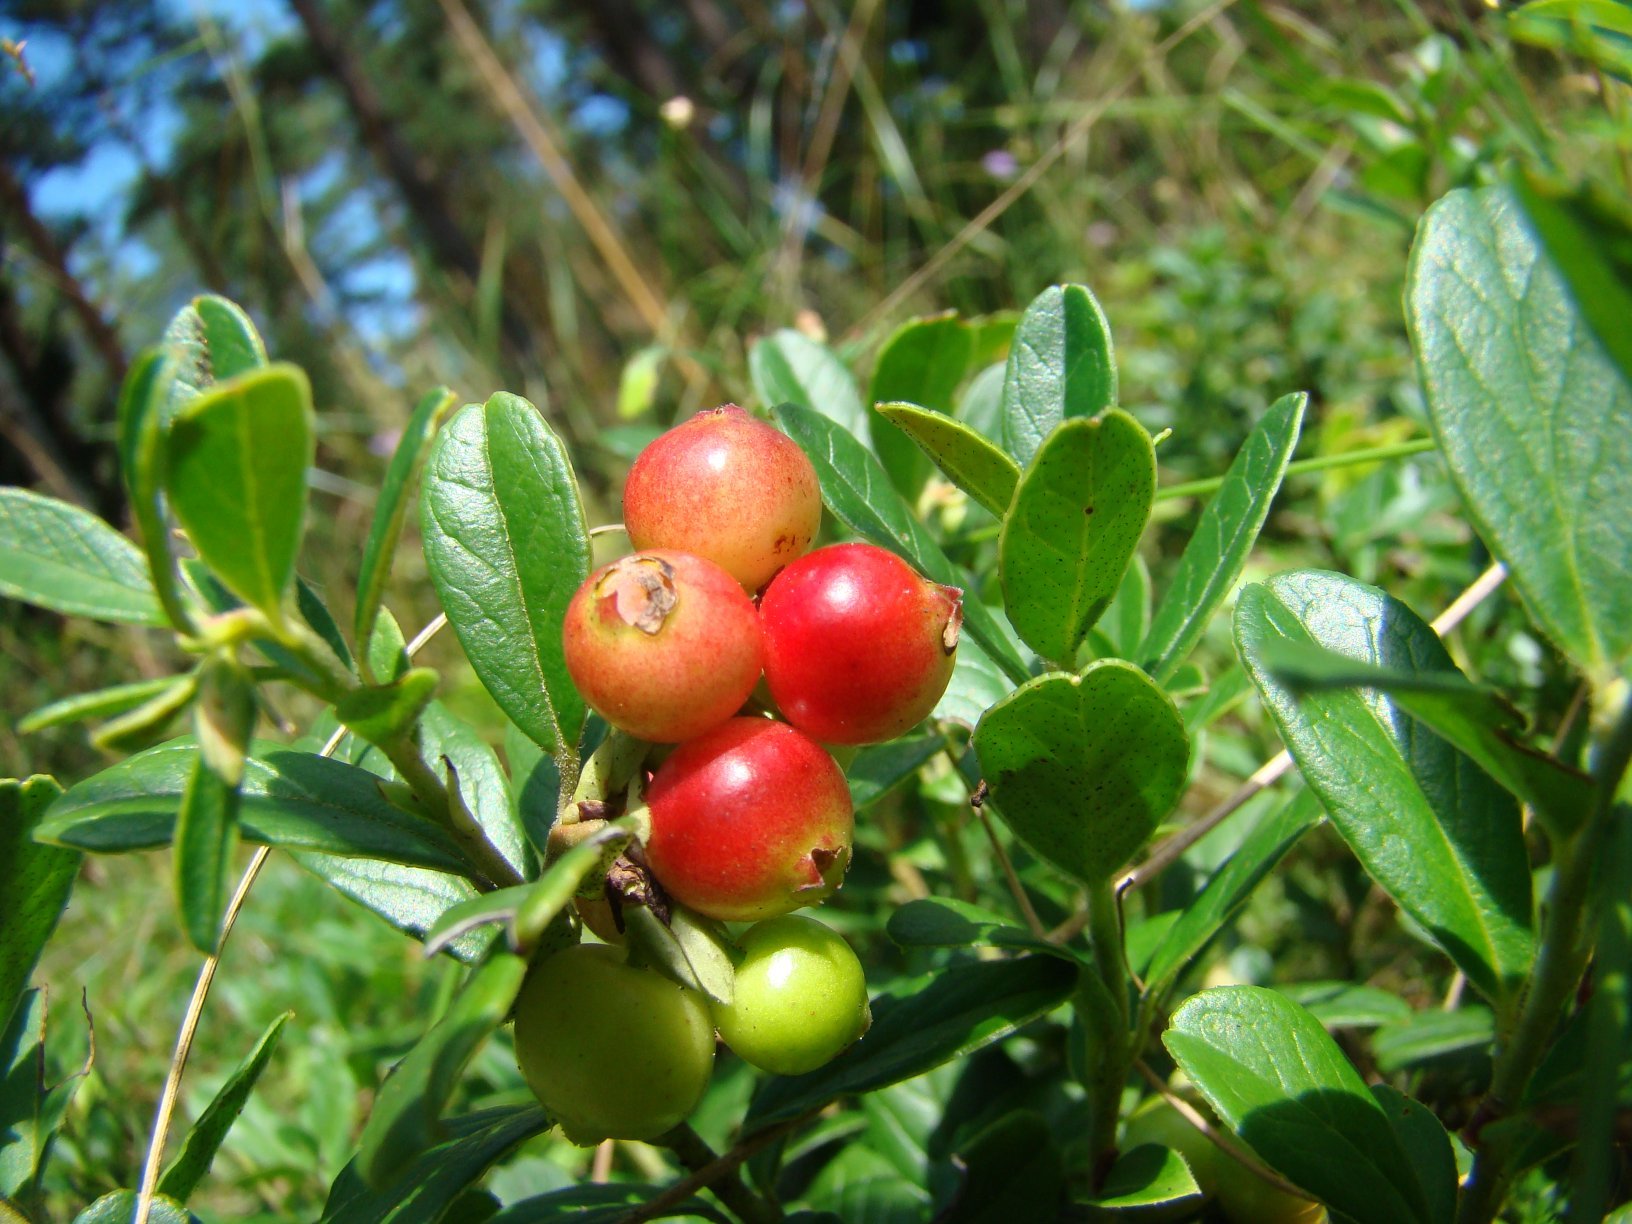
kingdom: Plantae
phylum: Tracheophyta
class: Magnoliopsida
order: Ericales
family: Ericaceae
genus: Vaccinium
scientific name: Vaccinium vitis-idaea
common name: Cowberry
